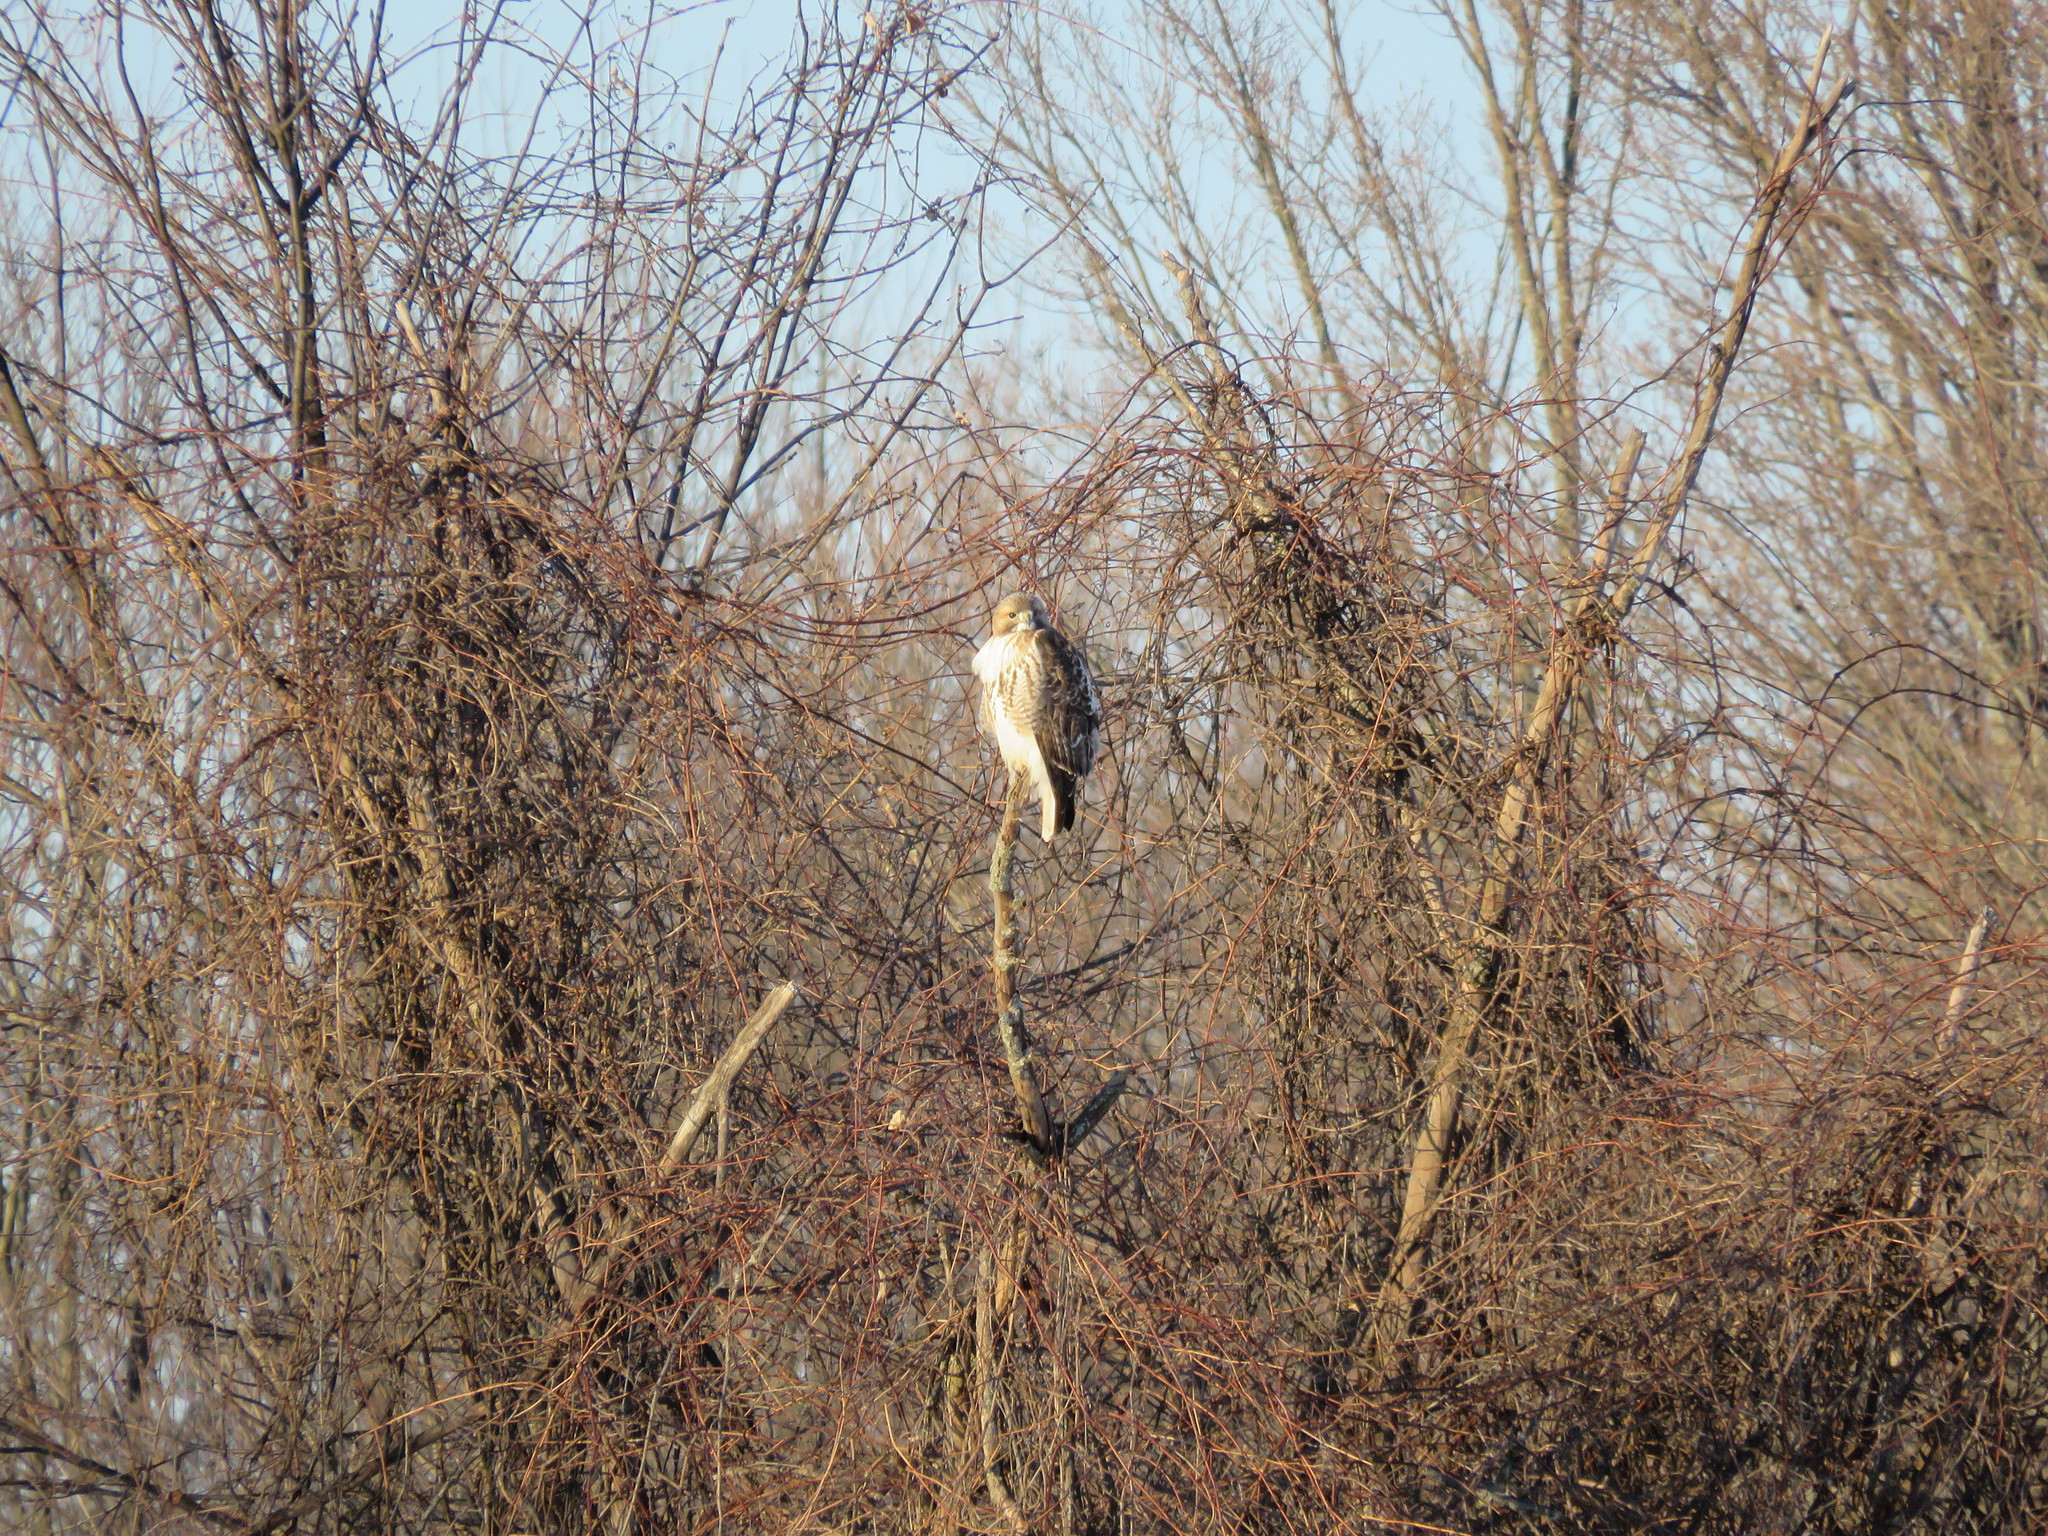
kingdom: Animalia
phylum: Chordata
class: Aves
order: Accipitriformes
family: Accipitridae
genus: Buteo
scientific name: Buteo jamaicensis
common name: Red-tailed hawk
